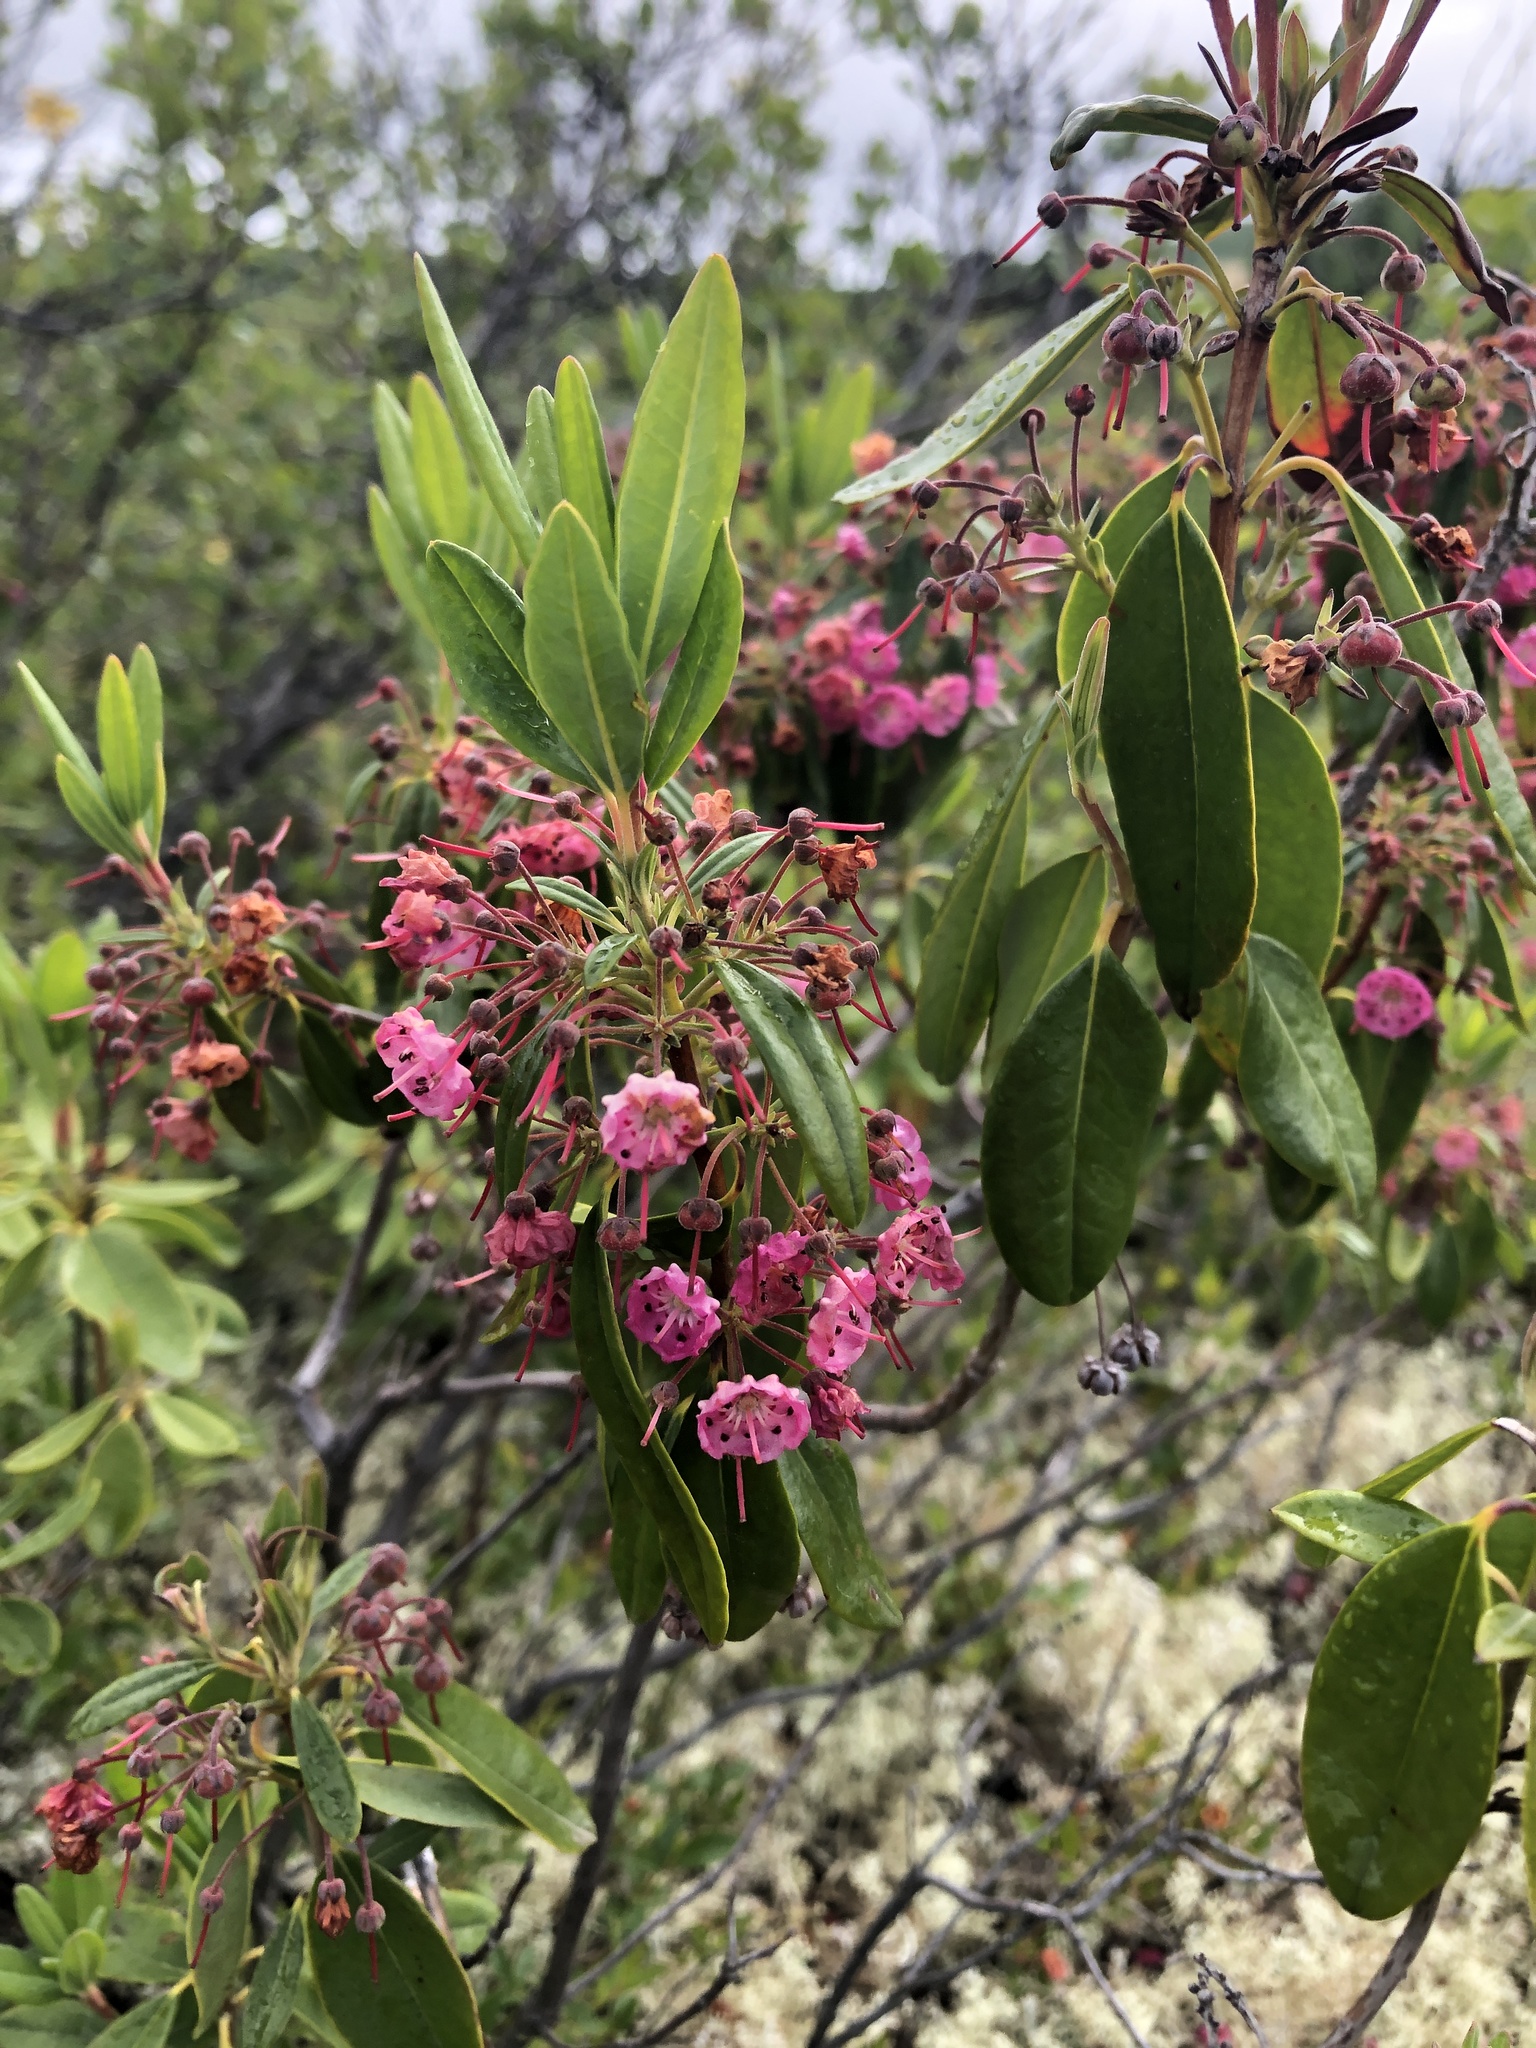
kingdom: Plantae
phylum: Tracheophyta
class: Magnoliopsida
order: Ericales
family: Ericaceae
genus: Kalmia
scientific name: Kalmia angustifolia
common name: Sheep-laurel
